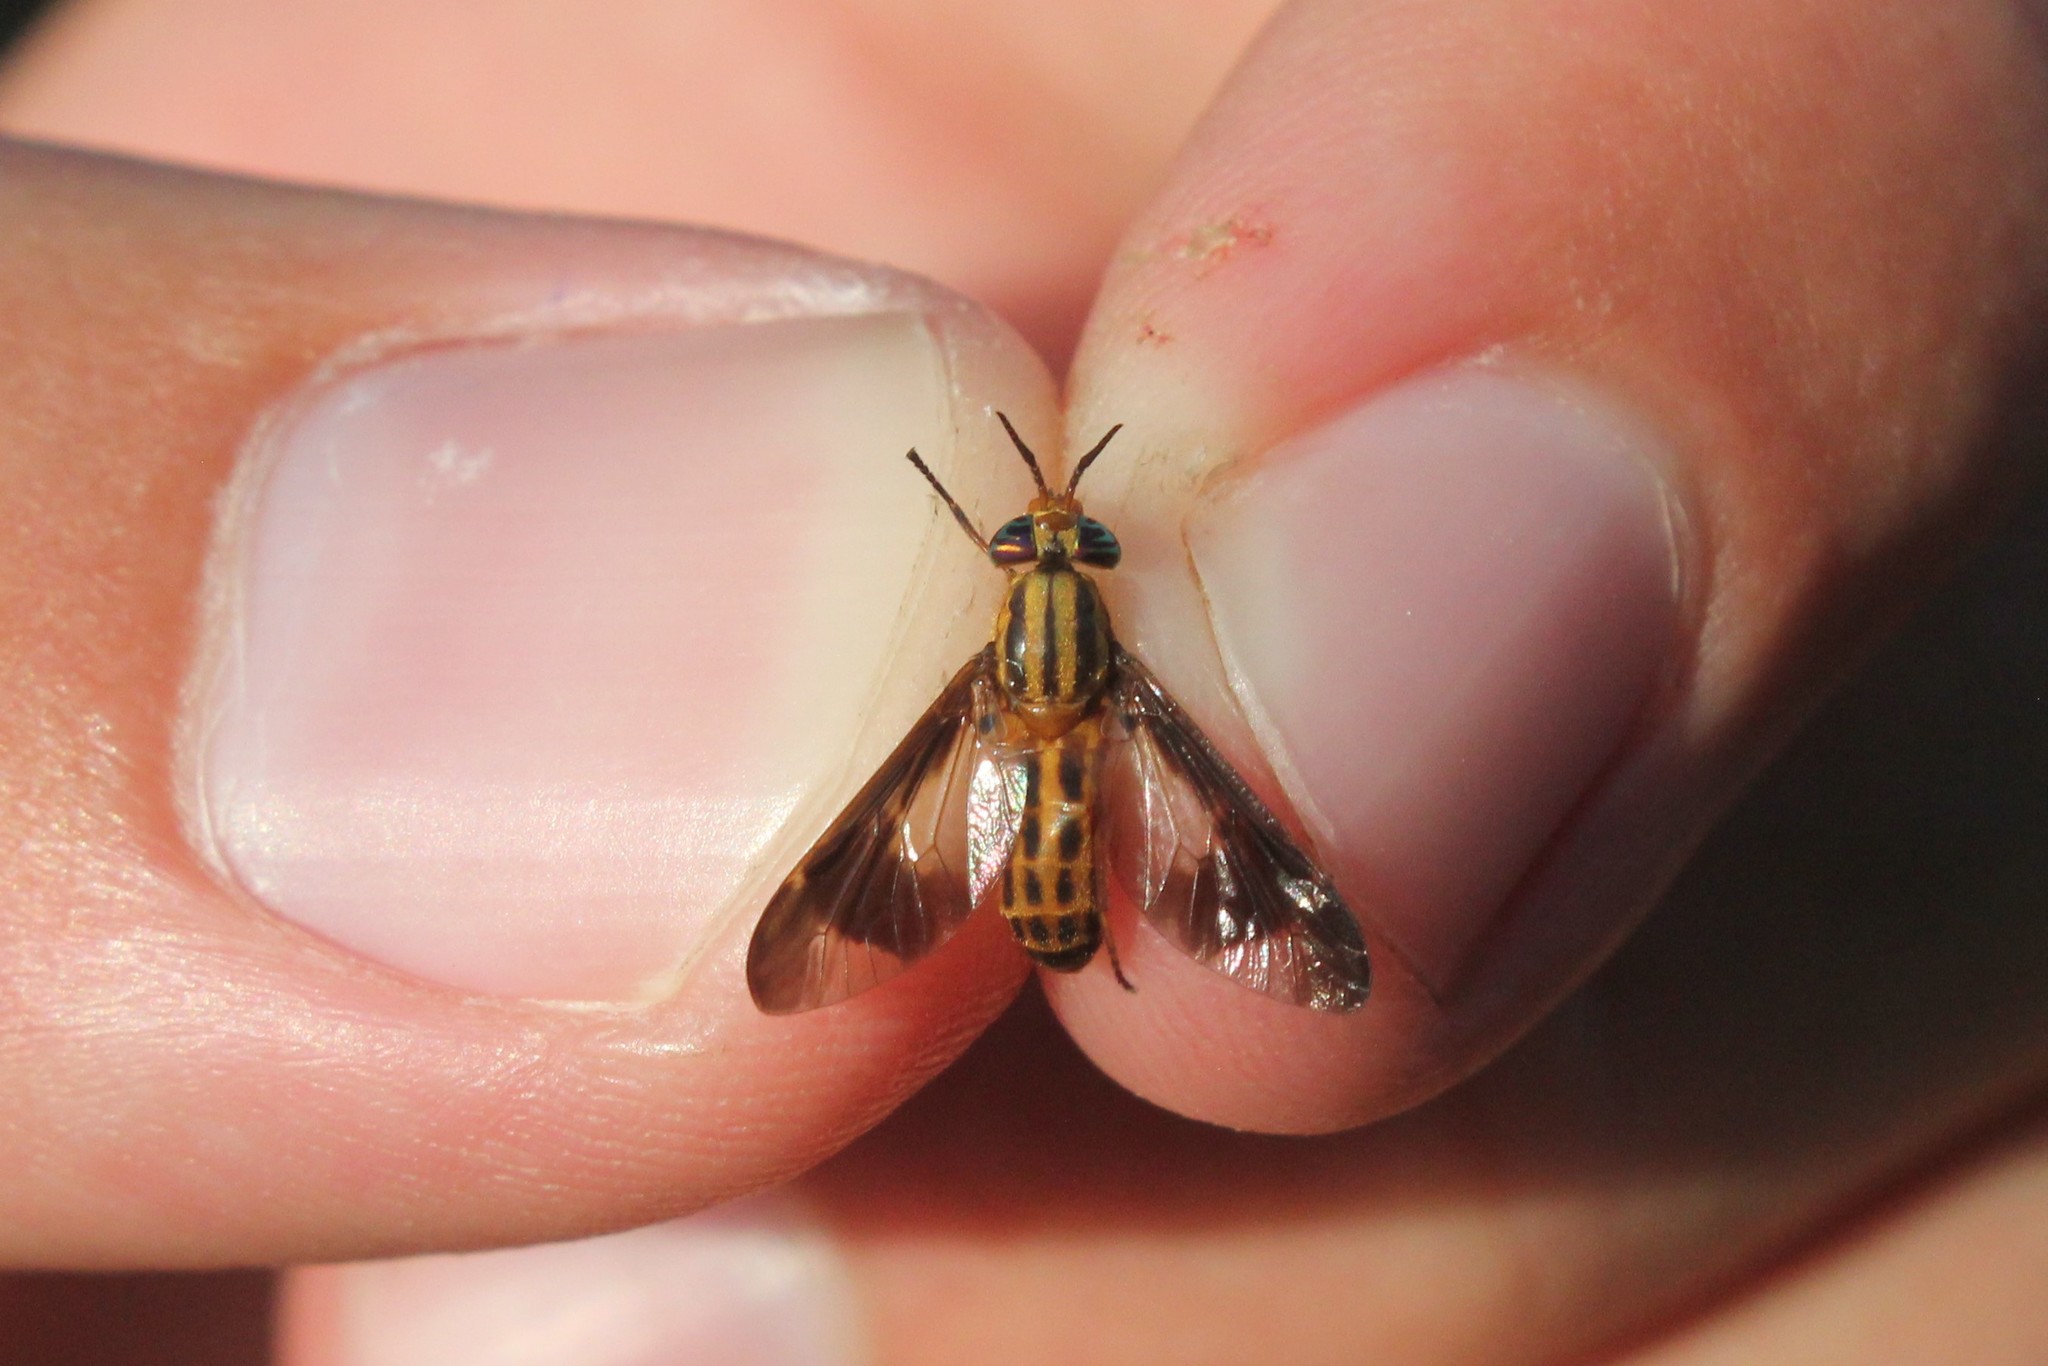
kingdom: Animalia
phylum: Arthropoda
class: Insecta
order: Diptera
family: Tabanidae
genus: Chrysops
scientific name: Chrysops vittatus
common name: Striped deer fly
